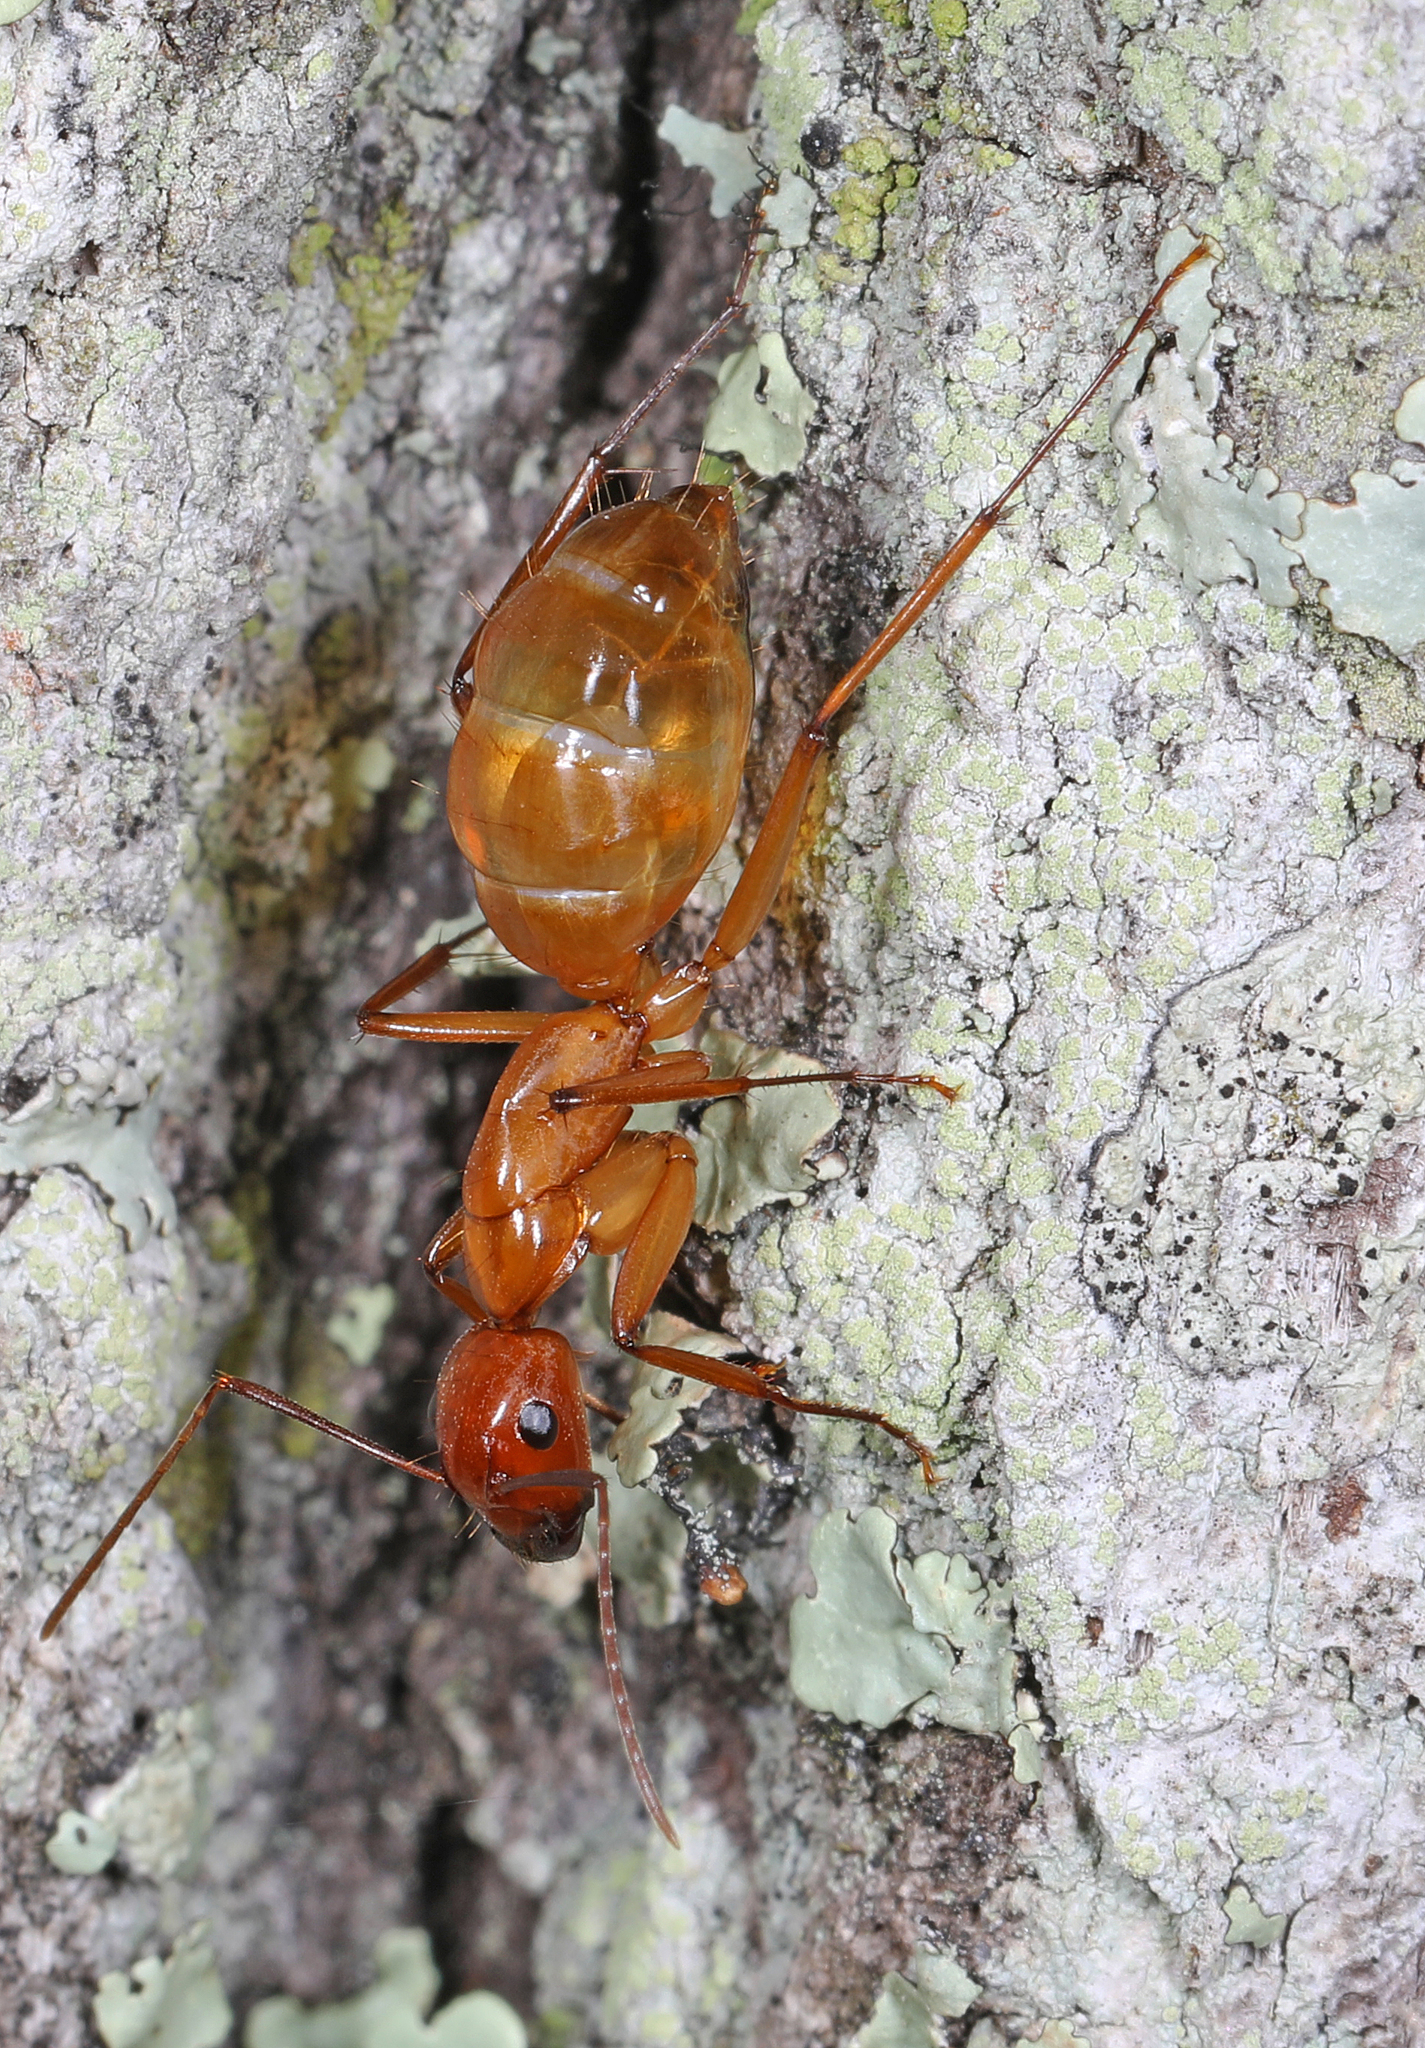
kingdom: Animalia
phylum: Arthropoda
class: Insecta
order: Hymenoptera
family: Formicidae
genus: Camponotus
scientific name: Camponotus castaneus
